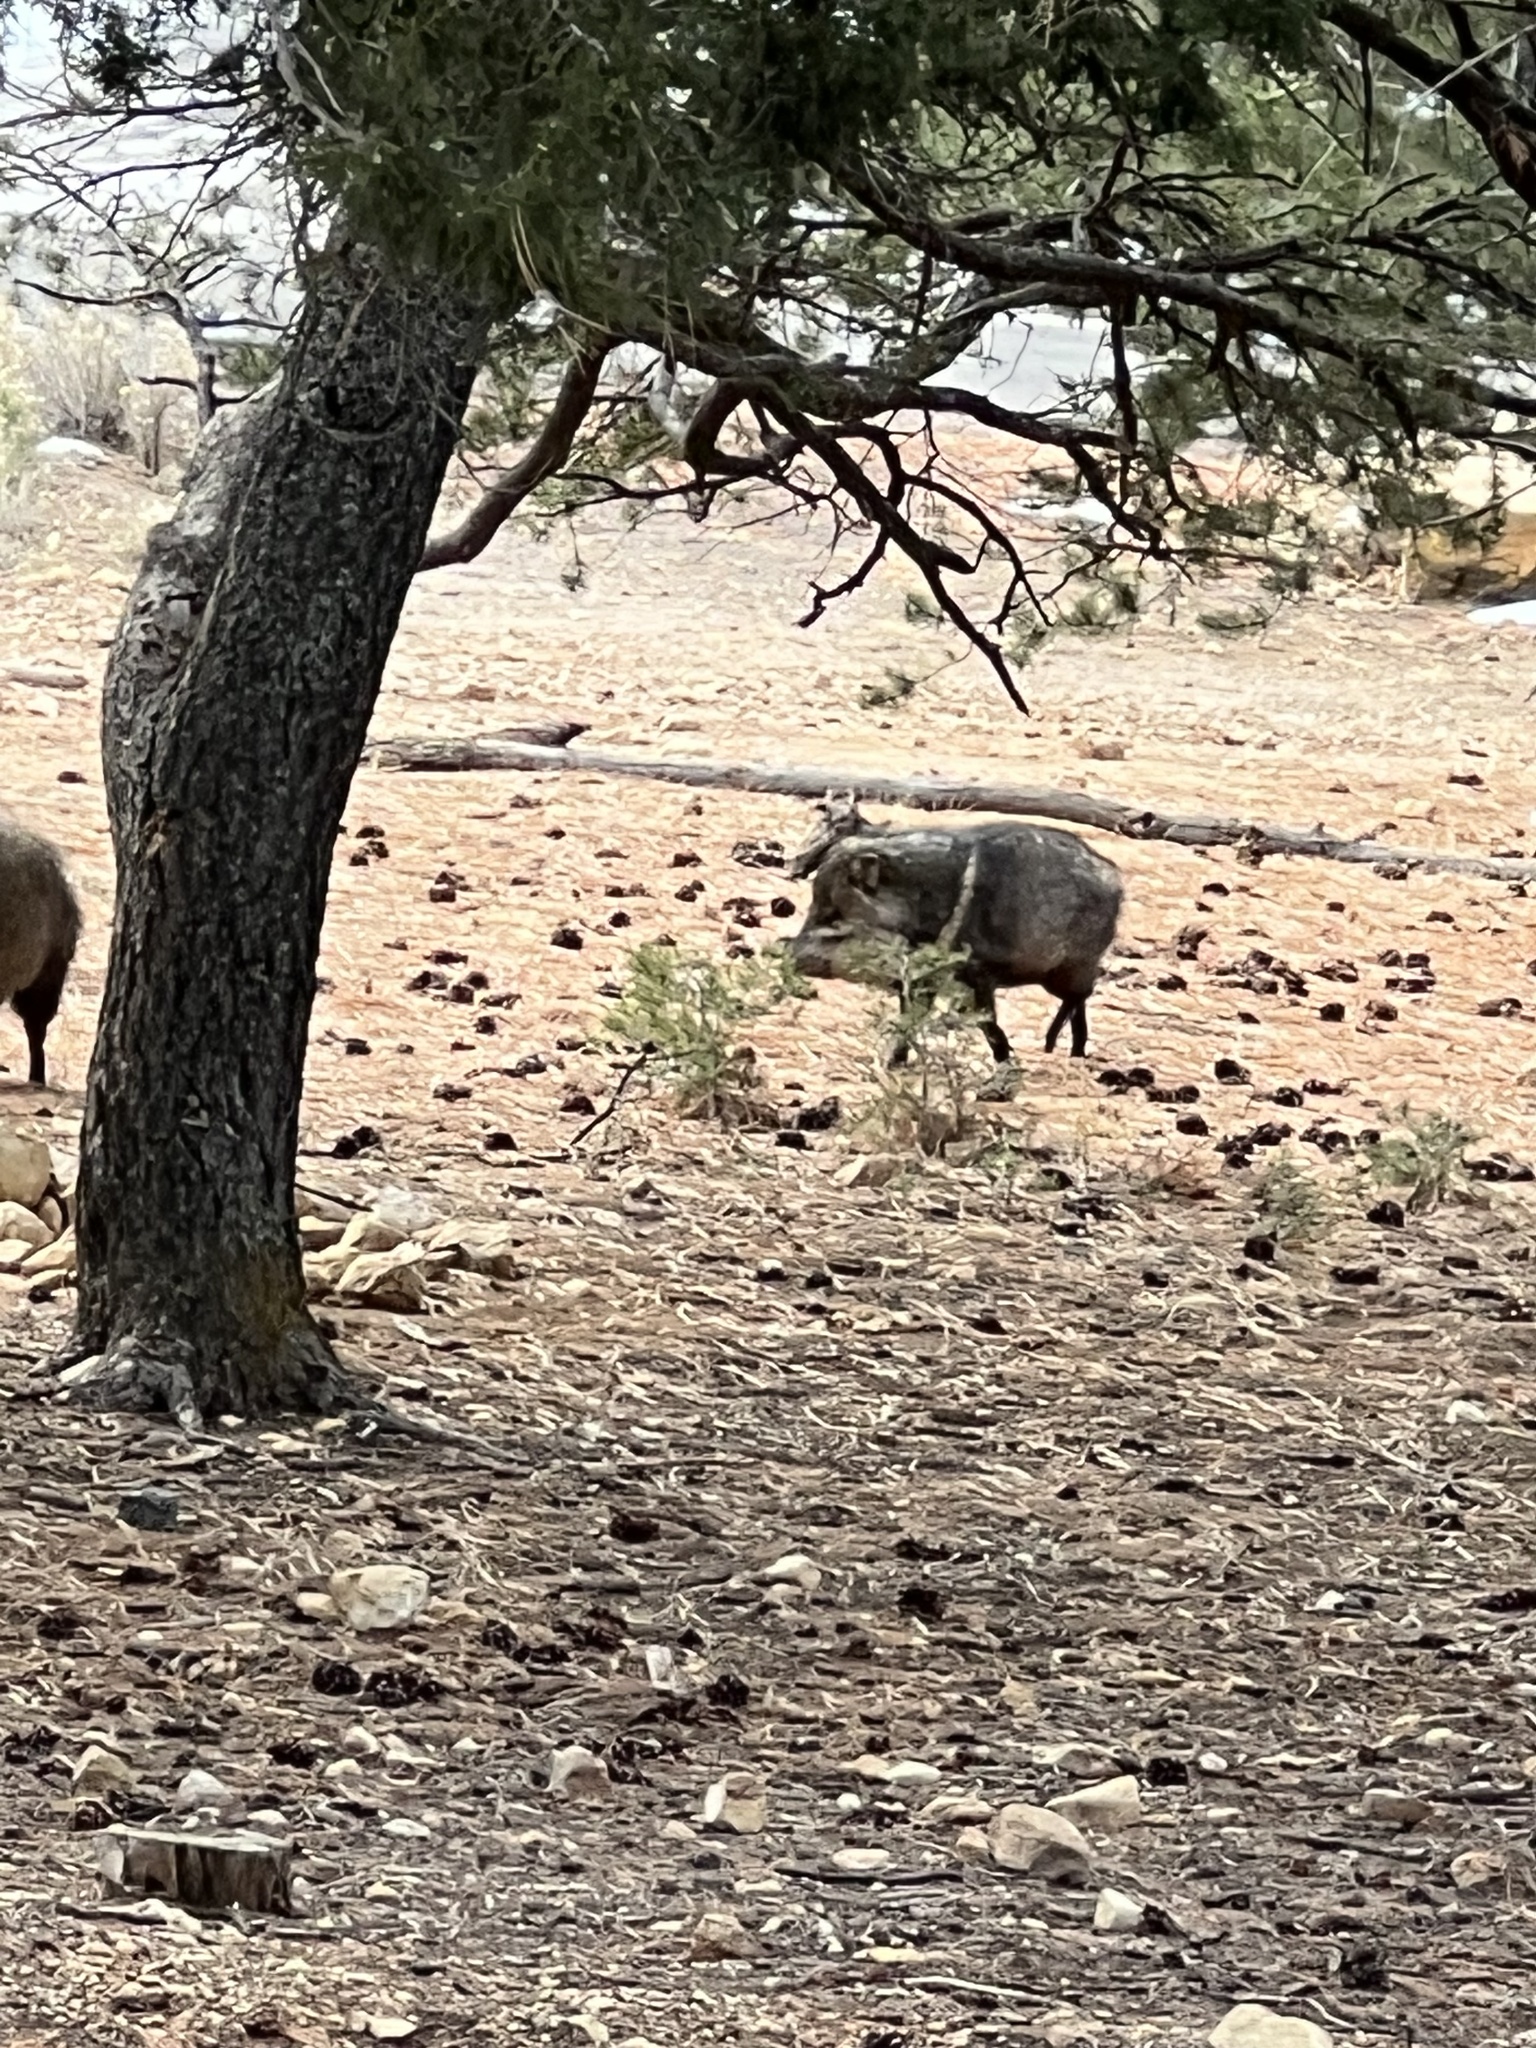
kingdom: Animalia
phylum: Chordata
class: Mammalia
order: Artiodactyla
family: Tayassuidae
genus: Pecari
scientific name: Pecari tajacu
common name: Collared peccary
